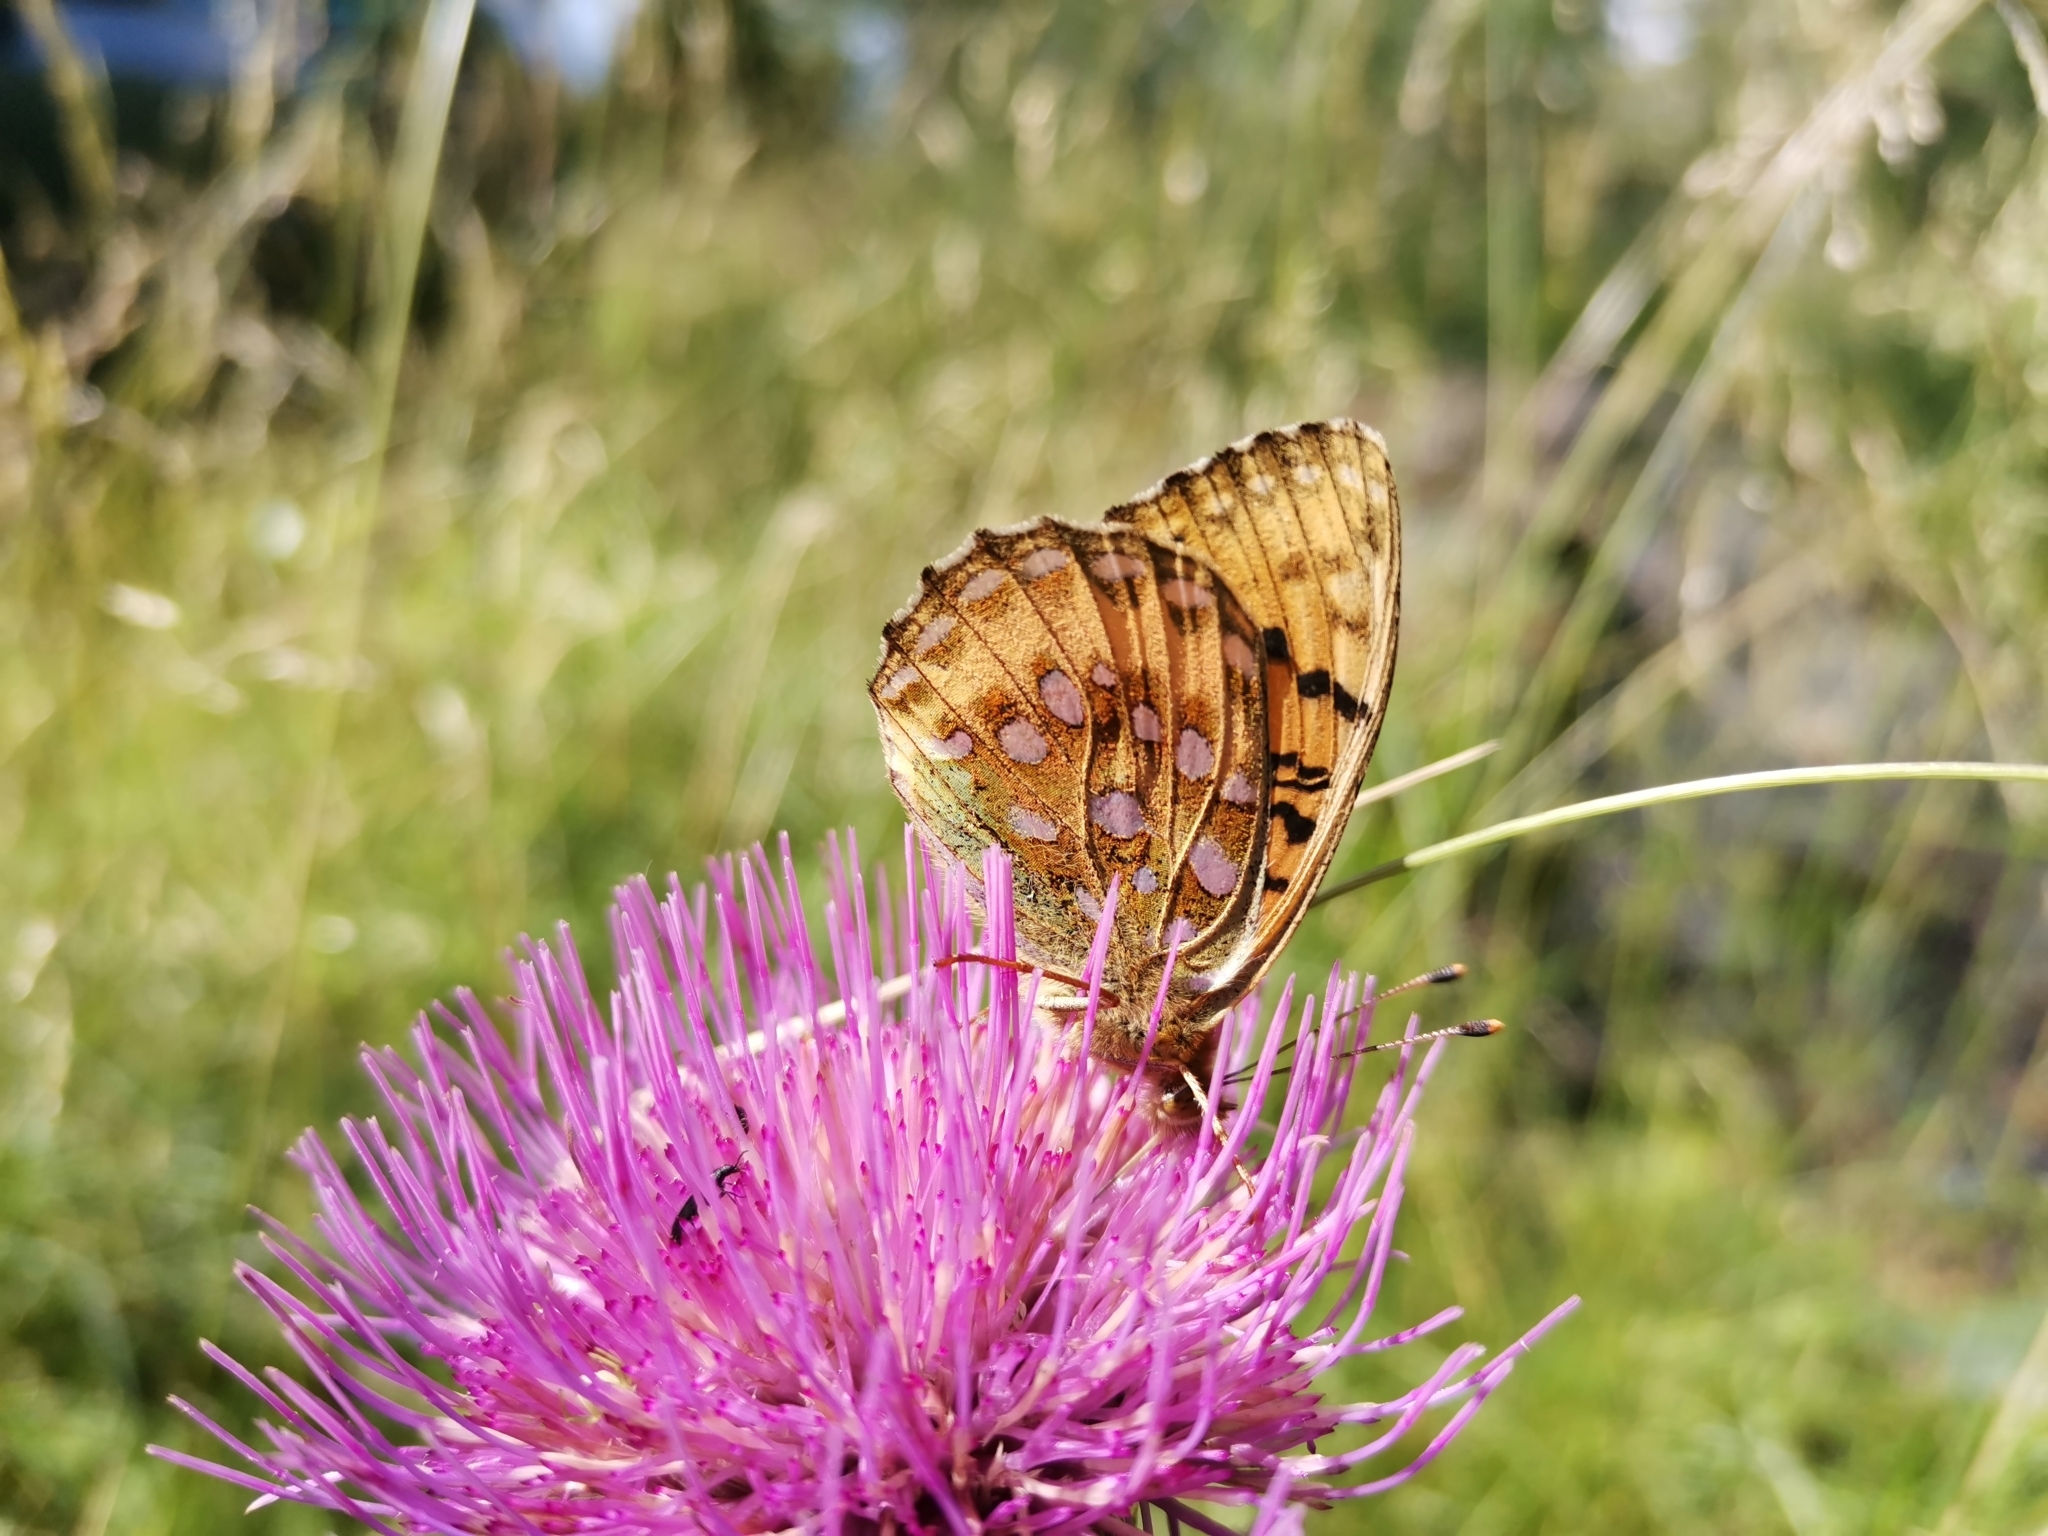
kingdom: Animalia
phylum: Arthropoda
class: Insecta
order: Lepidoptera
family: Nymphalidae
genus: Speyeria
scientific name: Speyeria aglaja
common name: Dark green fritillary
